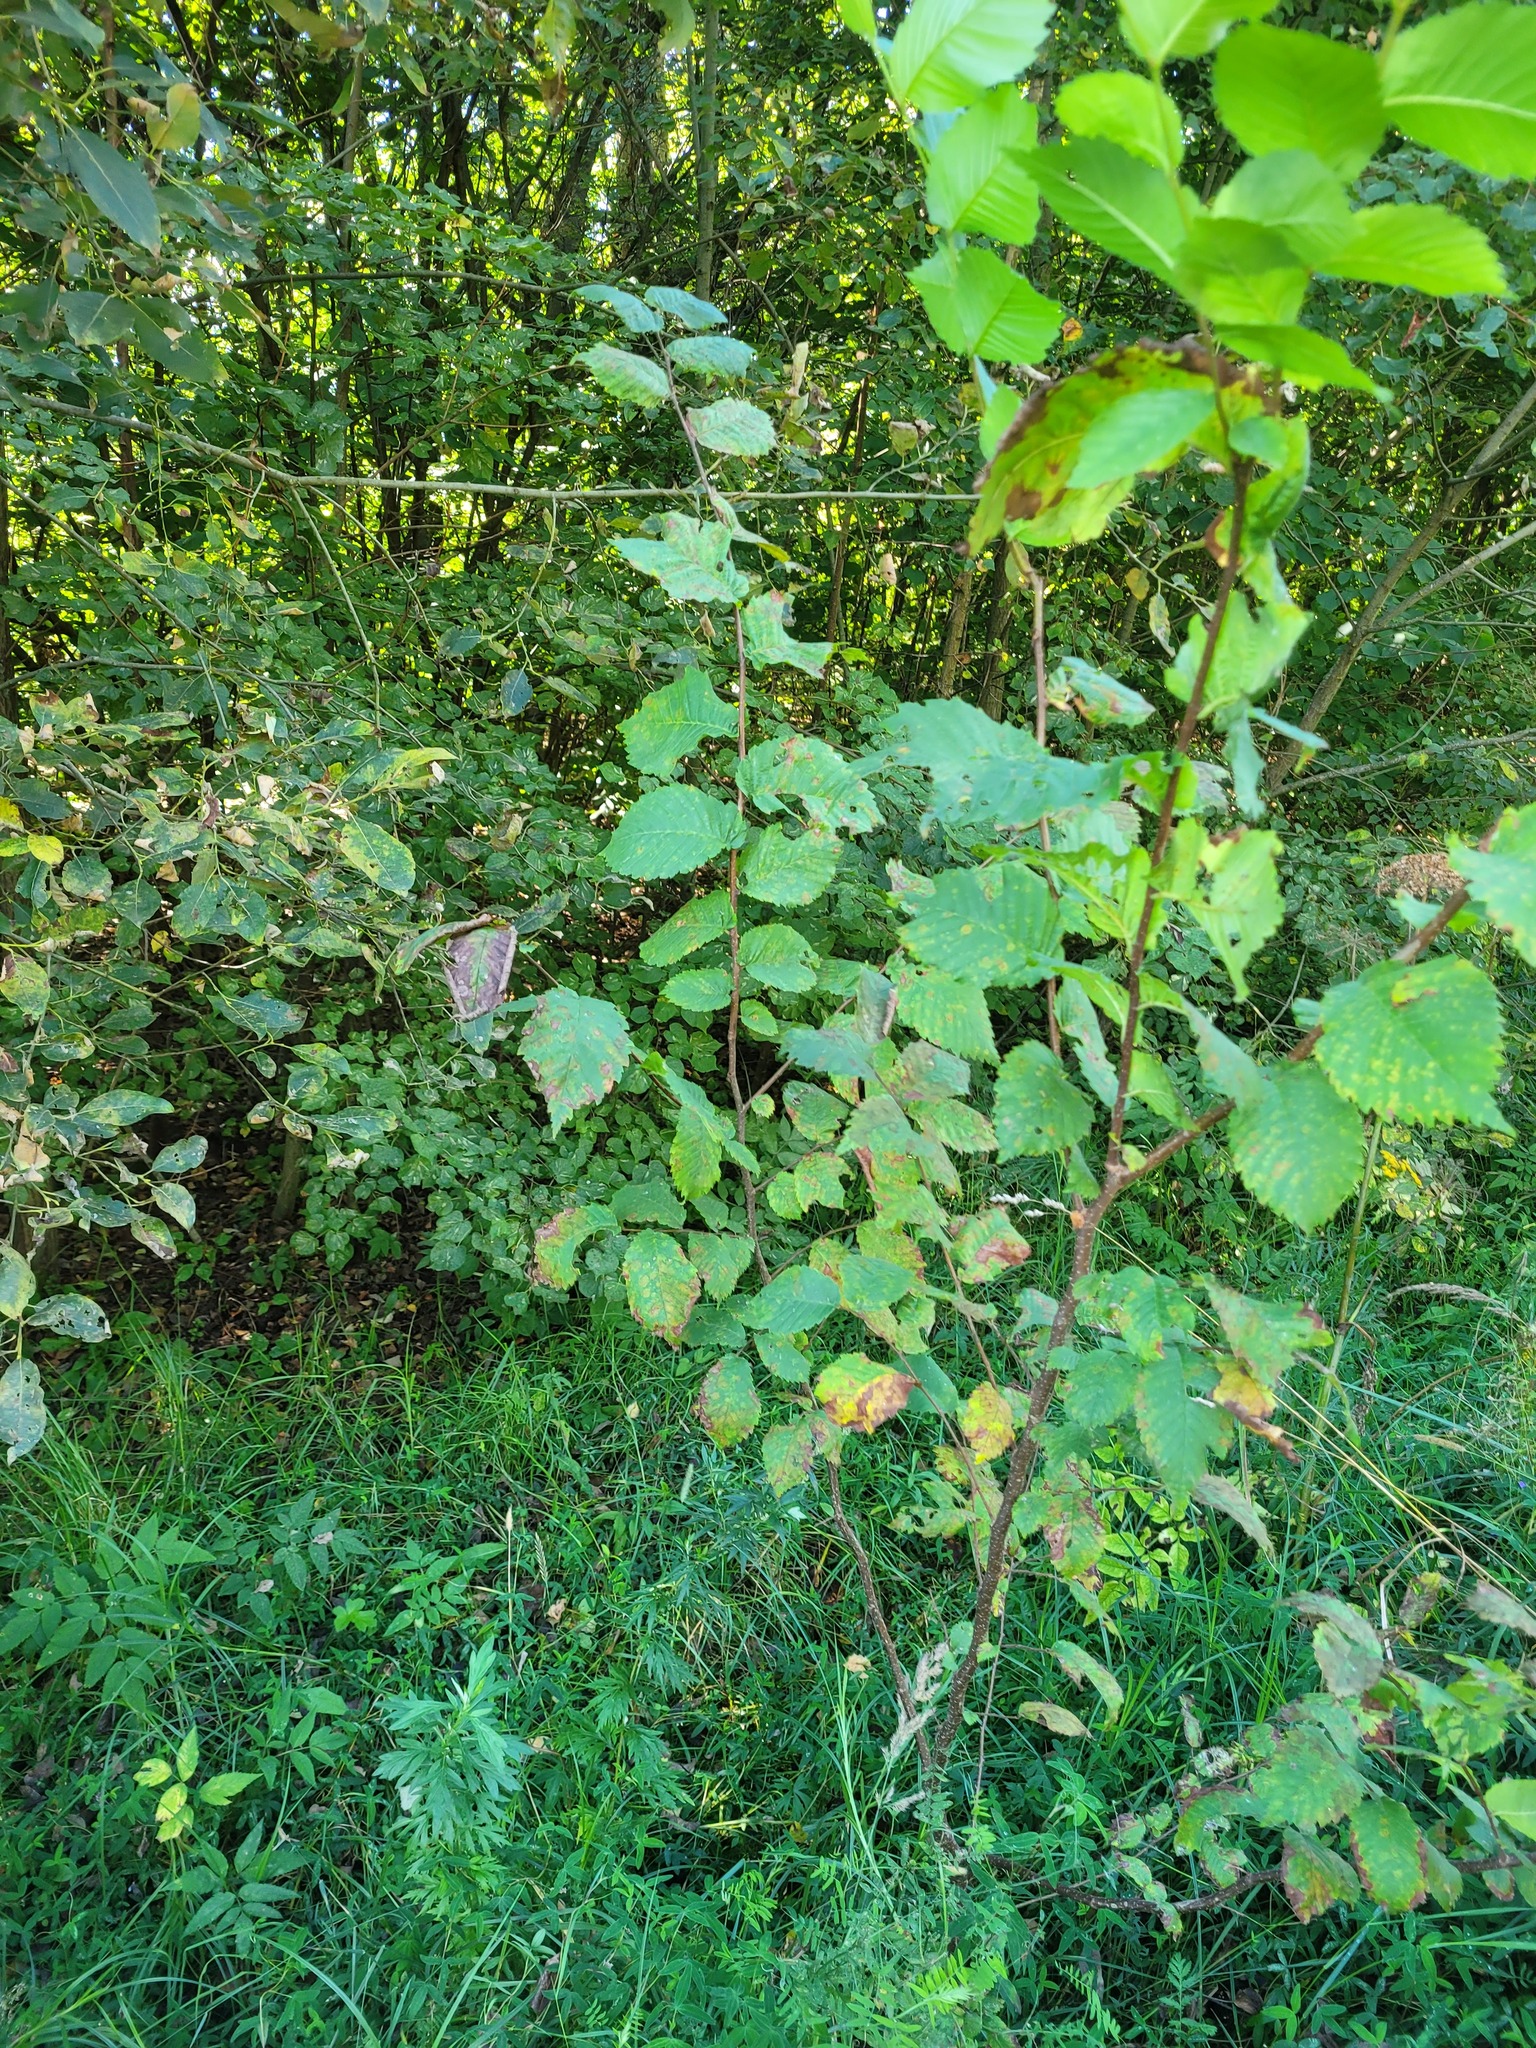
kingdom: Plantae
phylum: Tracheophyta
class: Magnoliopsida
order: Rosales
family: Ulmaceae
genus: Ulmus
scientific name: Ulmus laevis
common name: European white-elm
